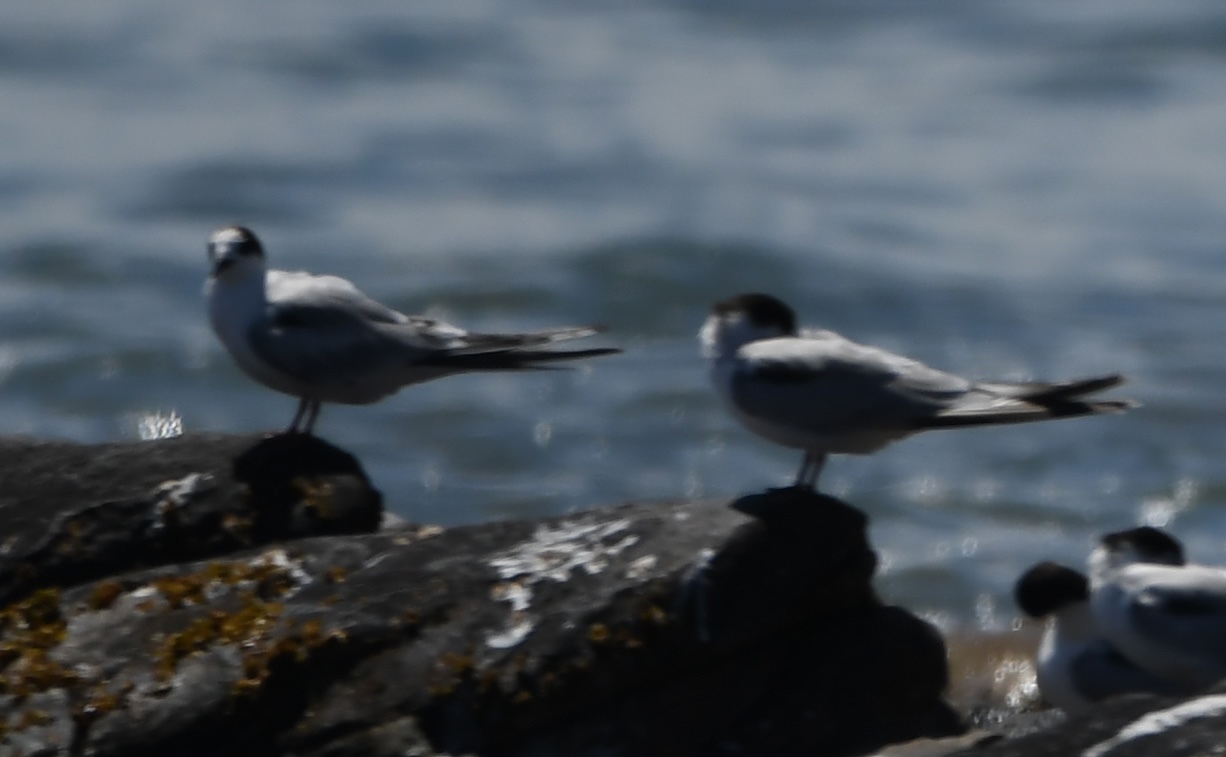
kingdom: Animalia
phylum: Chordata
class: Aves
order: Charadriiformes
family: Laridae
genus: Thalasseus
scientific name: Thalasseus sandvicensis
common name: Sandwich tern
